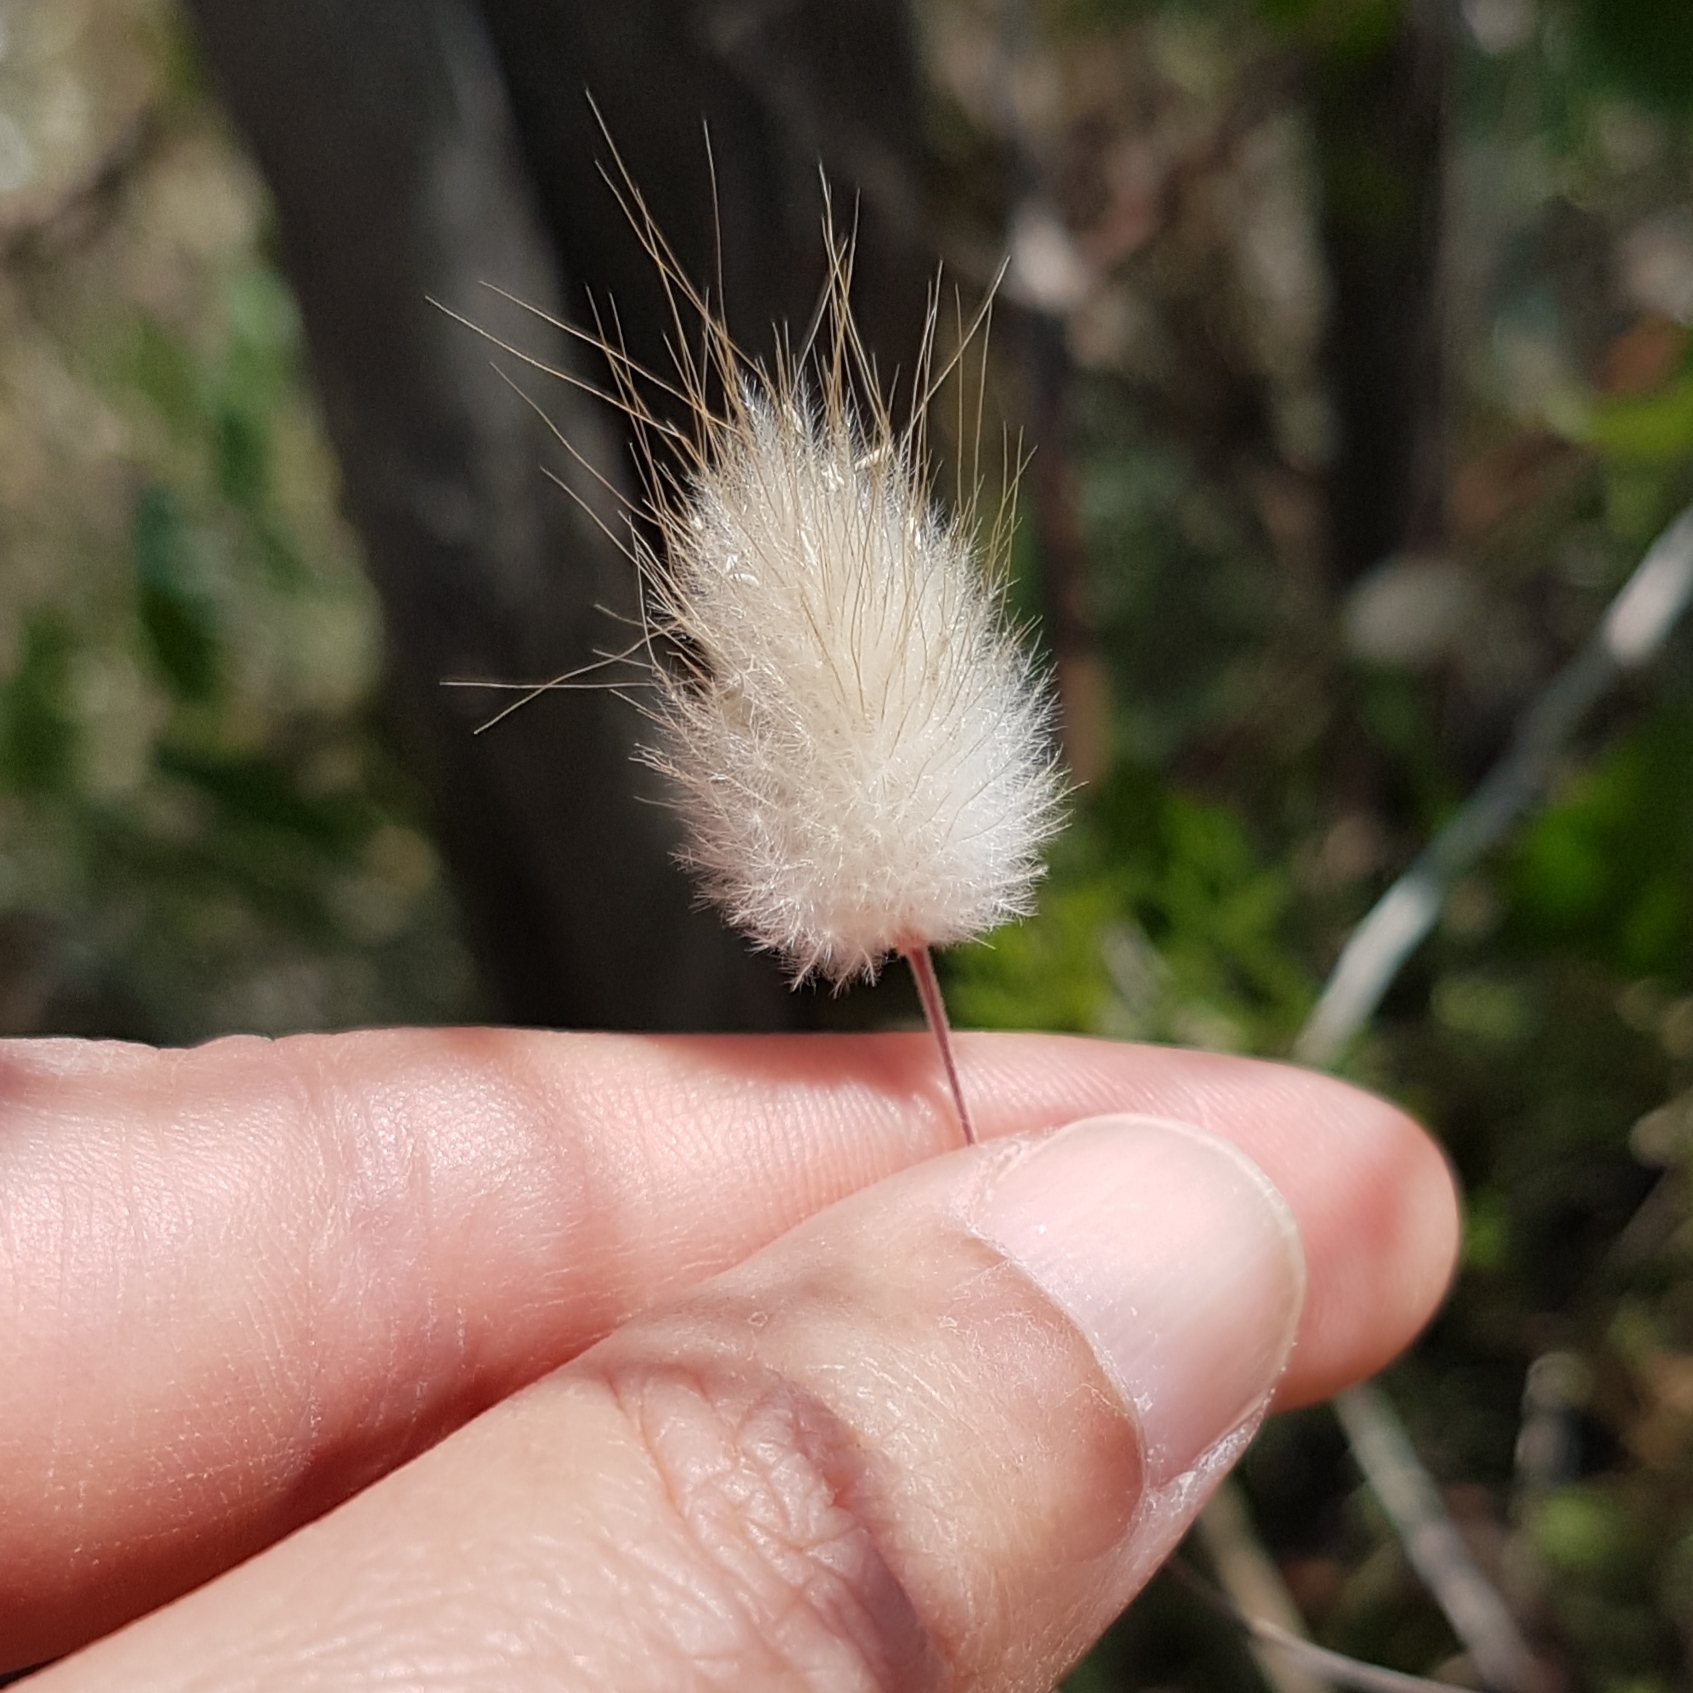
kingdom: Plantae
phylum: Tracheophyta
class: Liliopsida
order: Poales
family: Poaceae
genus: Lagurus
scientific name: Lagurus ovatus
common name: Hare's-tail
